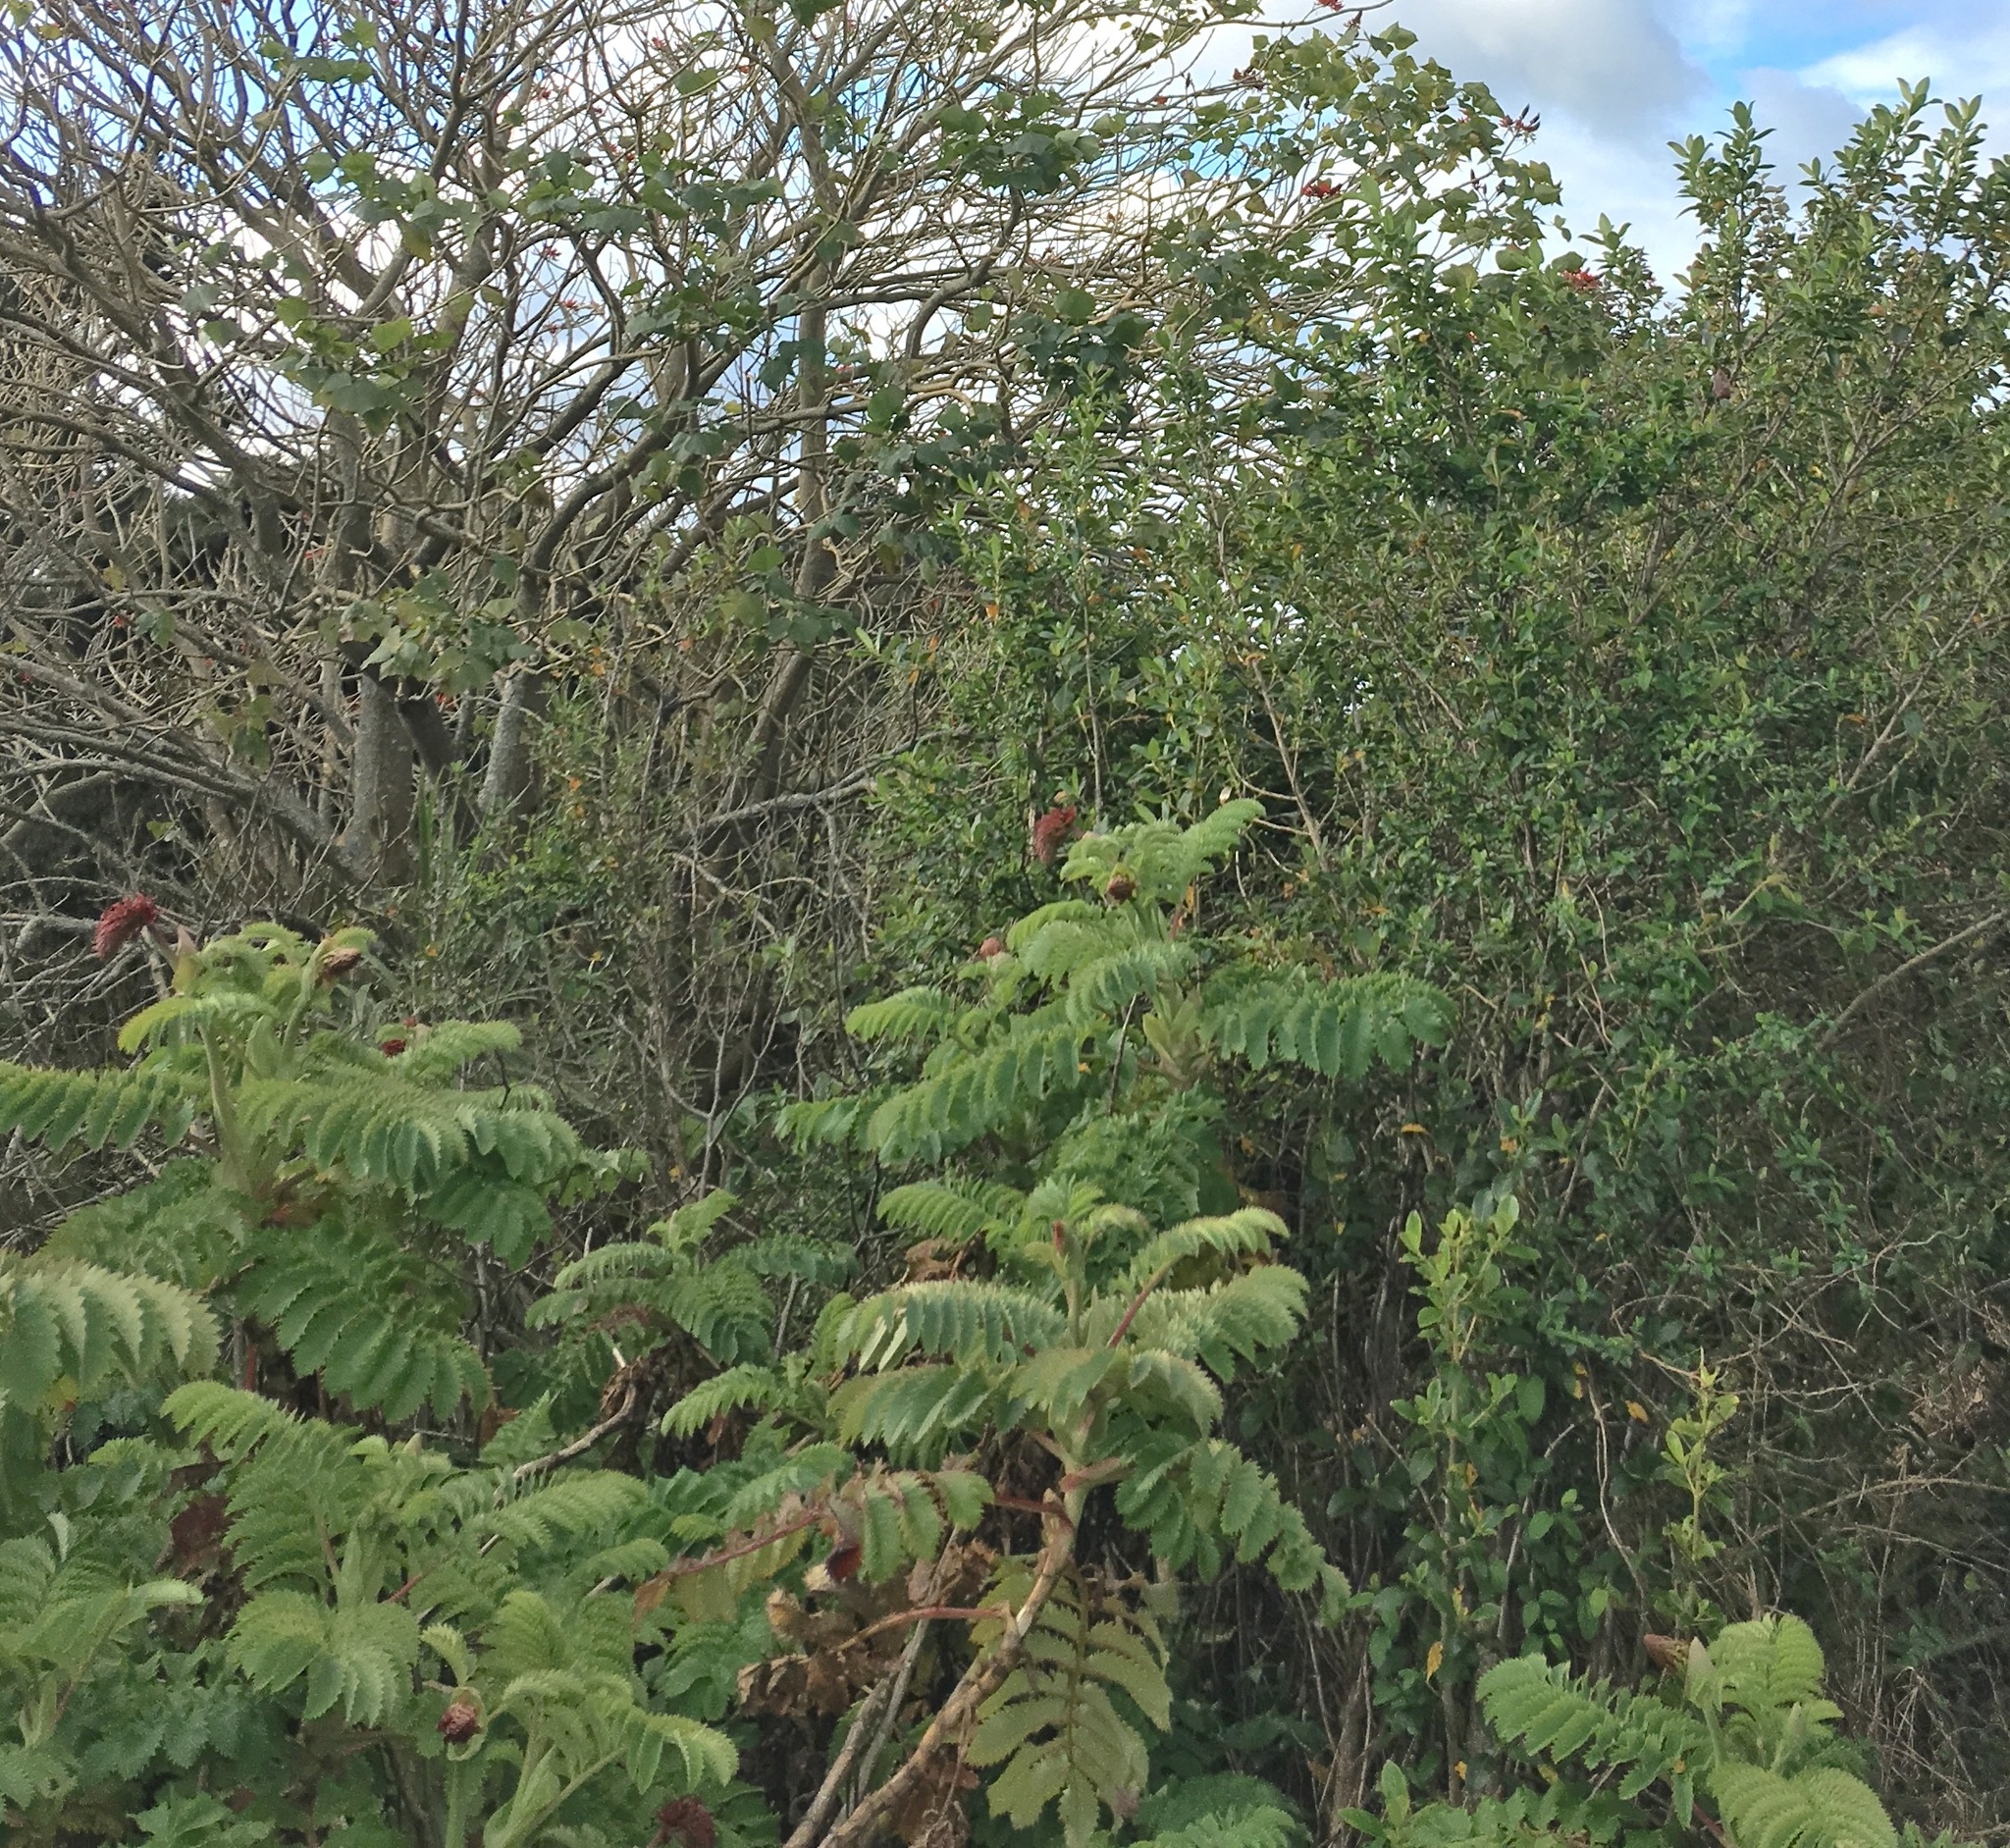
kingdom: Plantae
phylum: Tracheophyta
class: Magnoliopsida
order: Geraniales
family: Melianthaceae
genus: Melianthus
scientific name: Melianthus major
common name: Honey-flower
